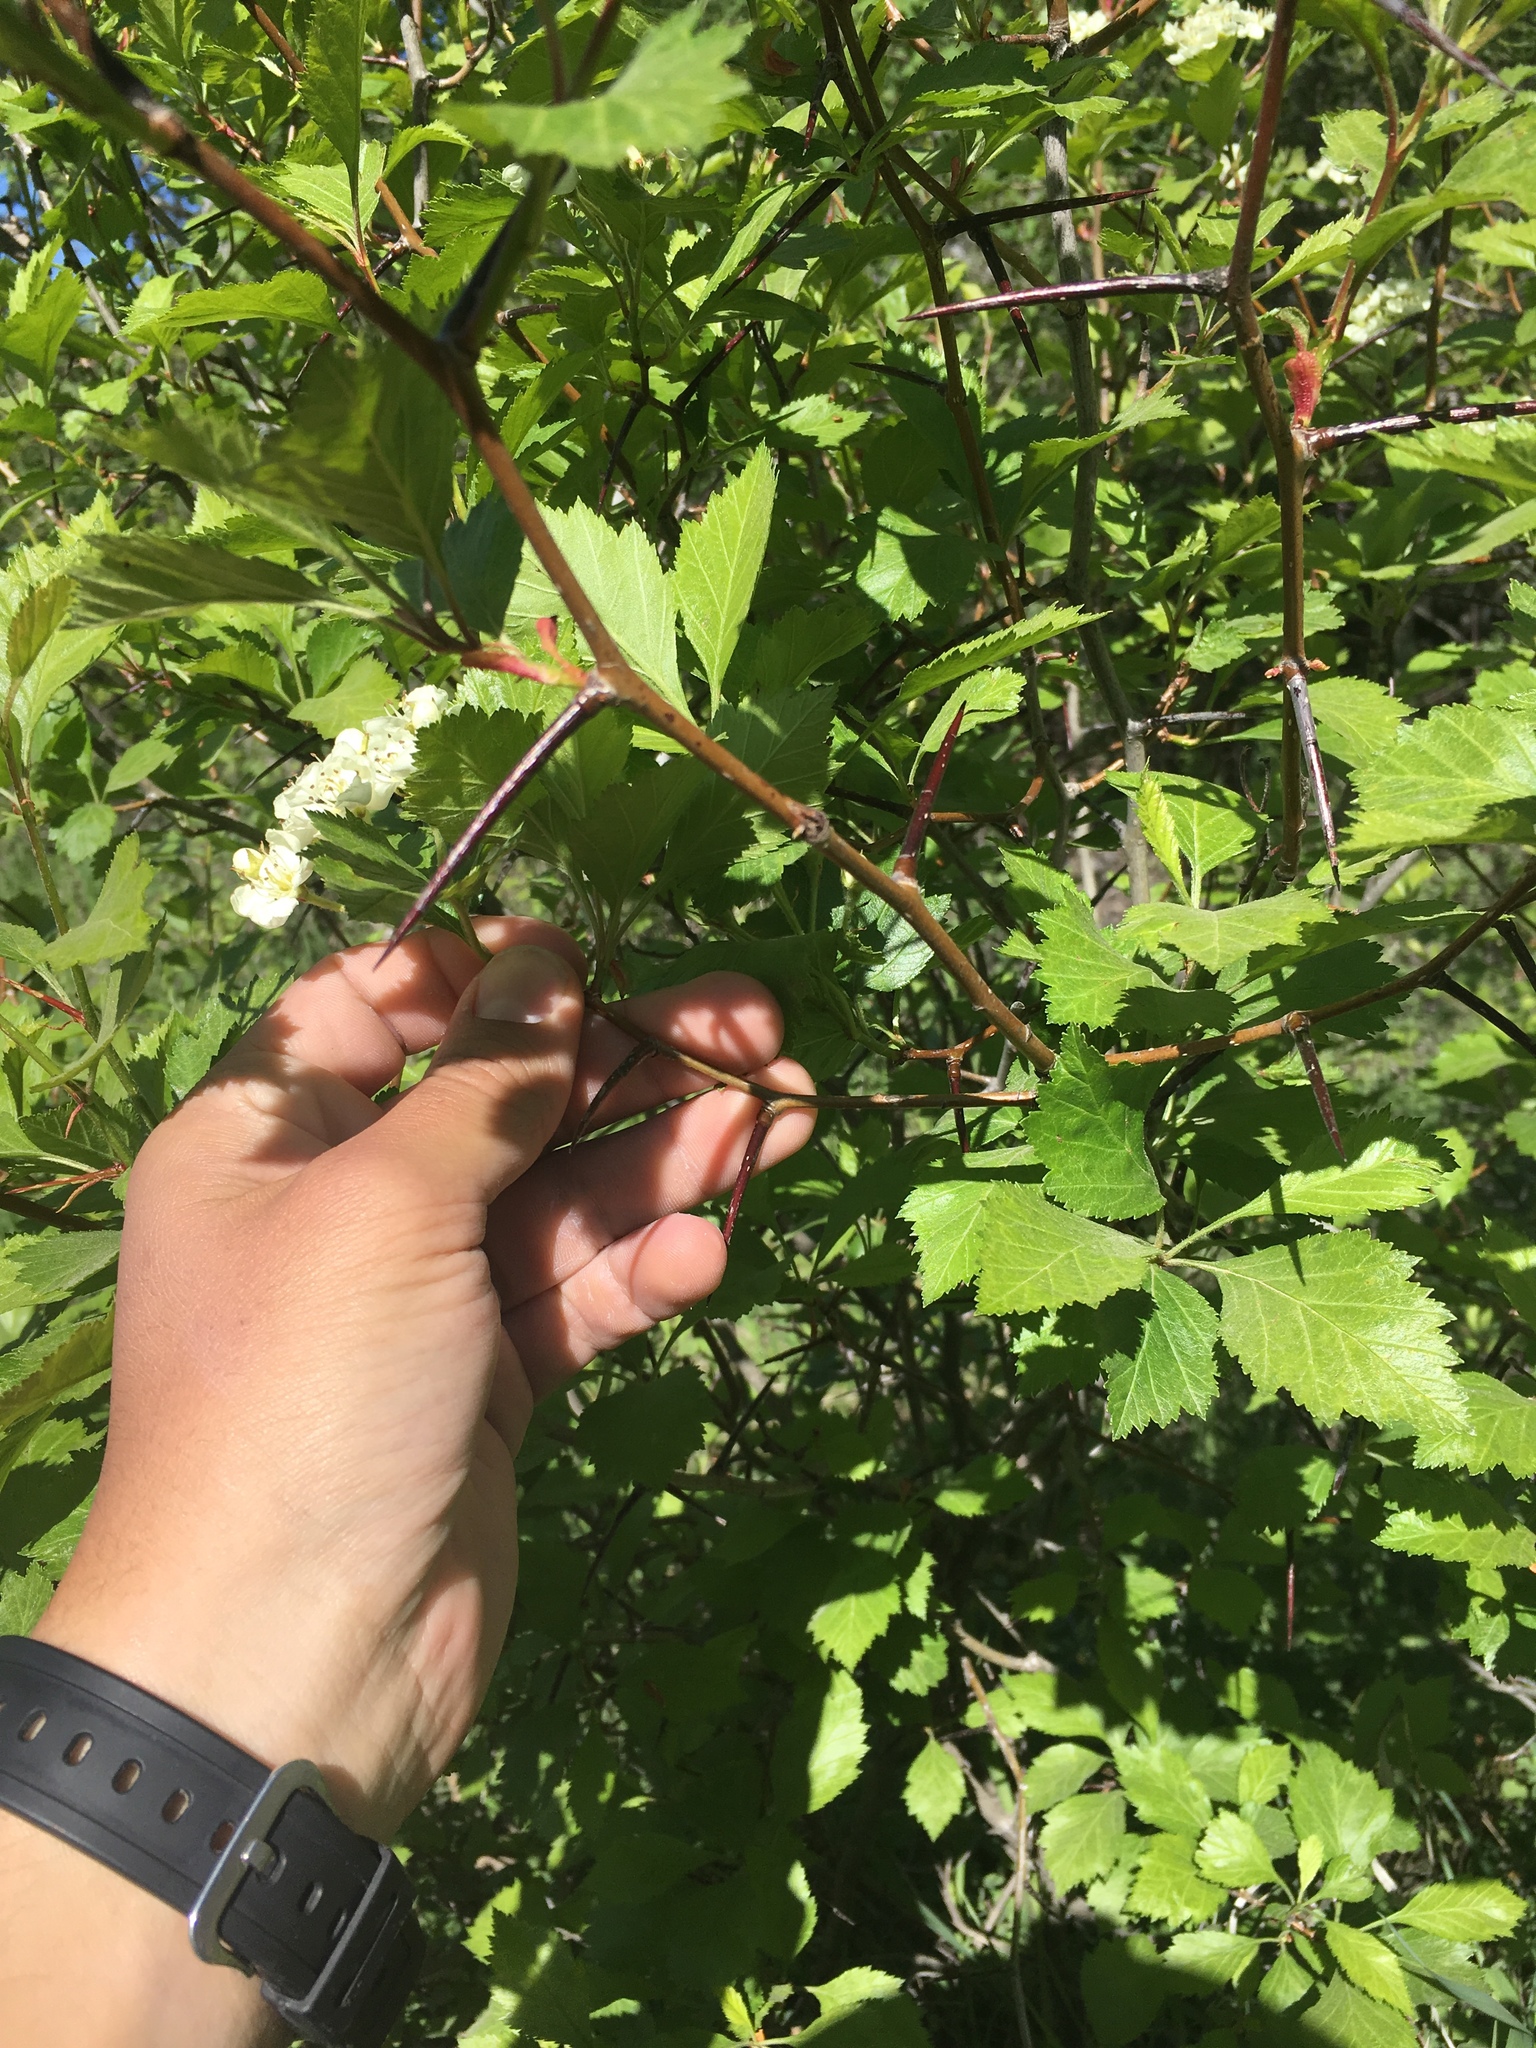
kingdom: Plantae
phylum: Tracheophyta
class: Magnoliopsida
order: Rosales
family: Rosaceae
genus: Crataegus
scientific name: Crataegus douglasii
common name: Black hawthorn
